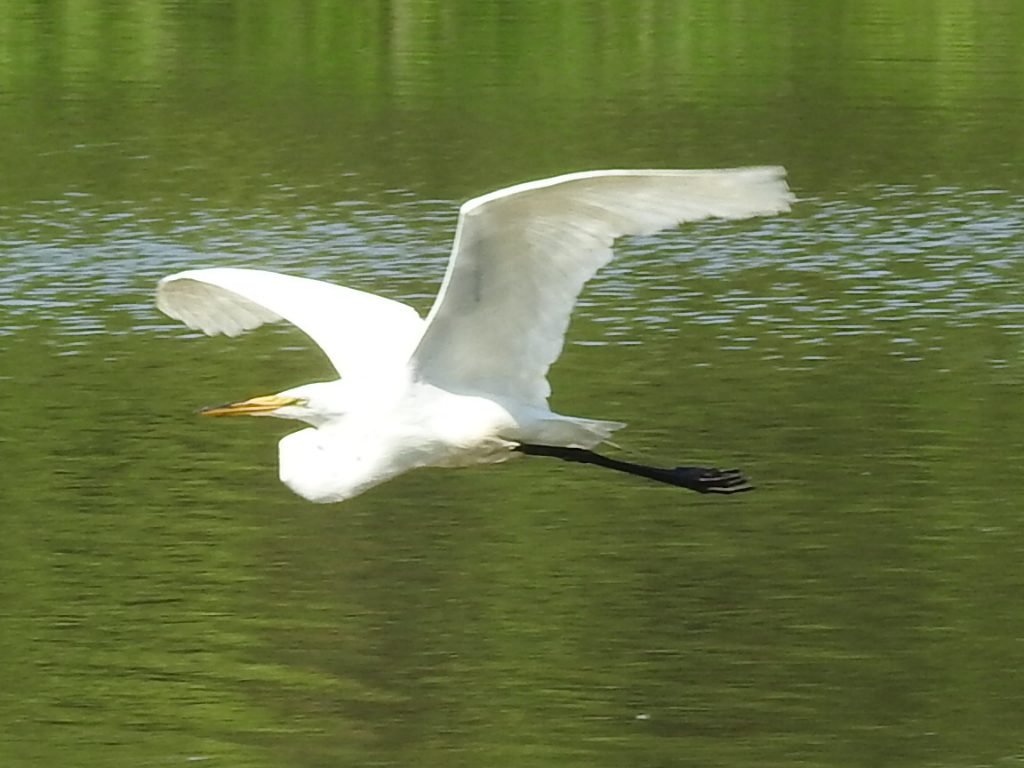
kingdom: Animalia
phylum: Chordata
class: Aves
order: Pelecaniformes
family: Ardeidae
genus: Ardea
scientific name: Ardea alba
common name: Great egret
